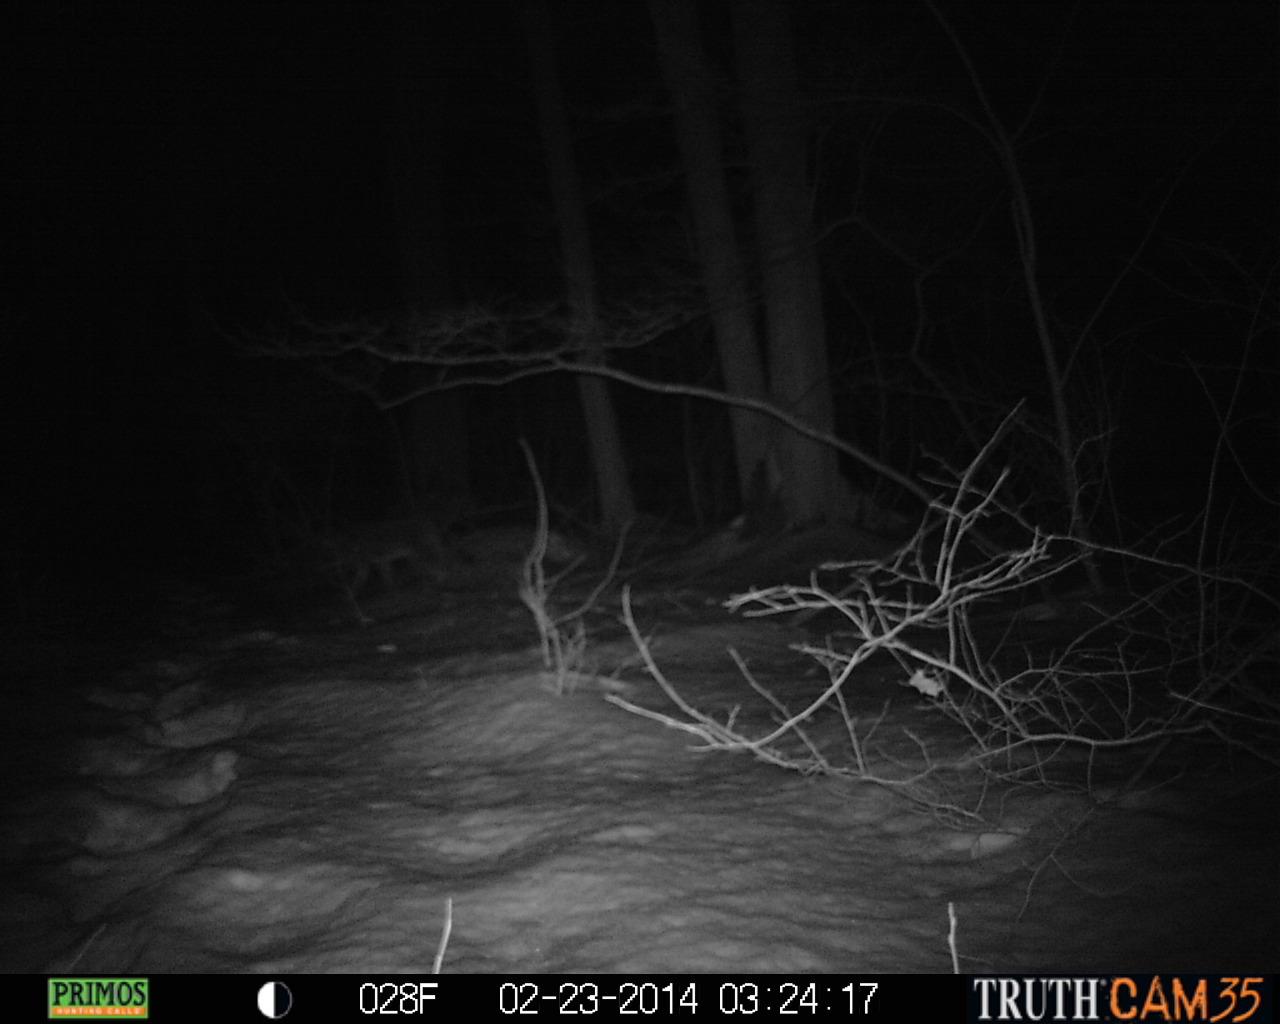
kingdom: Animalia
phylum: Chordata
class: Mammalia
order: Carnivora
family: Canidae
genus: Canis
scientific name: Canis latrans
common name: Coyote
